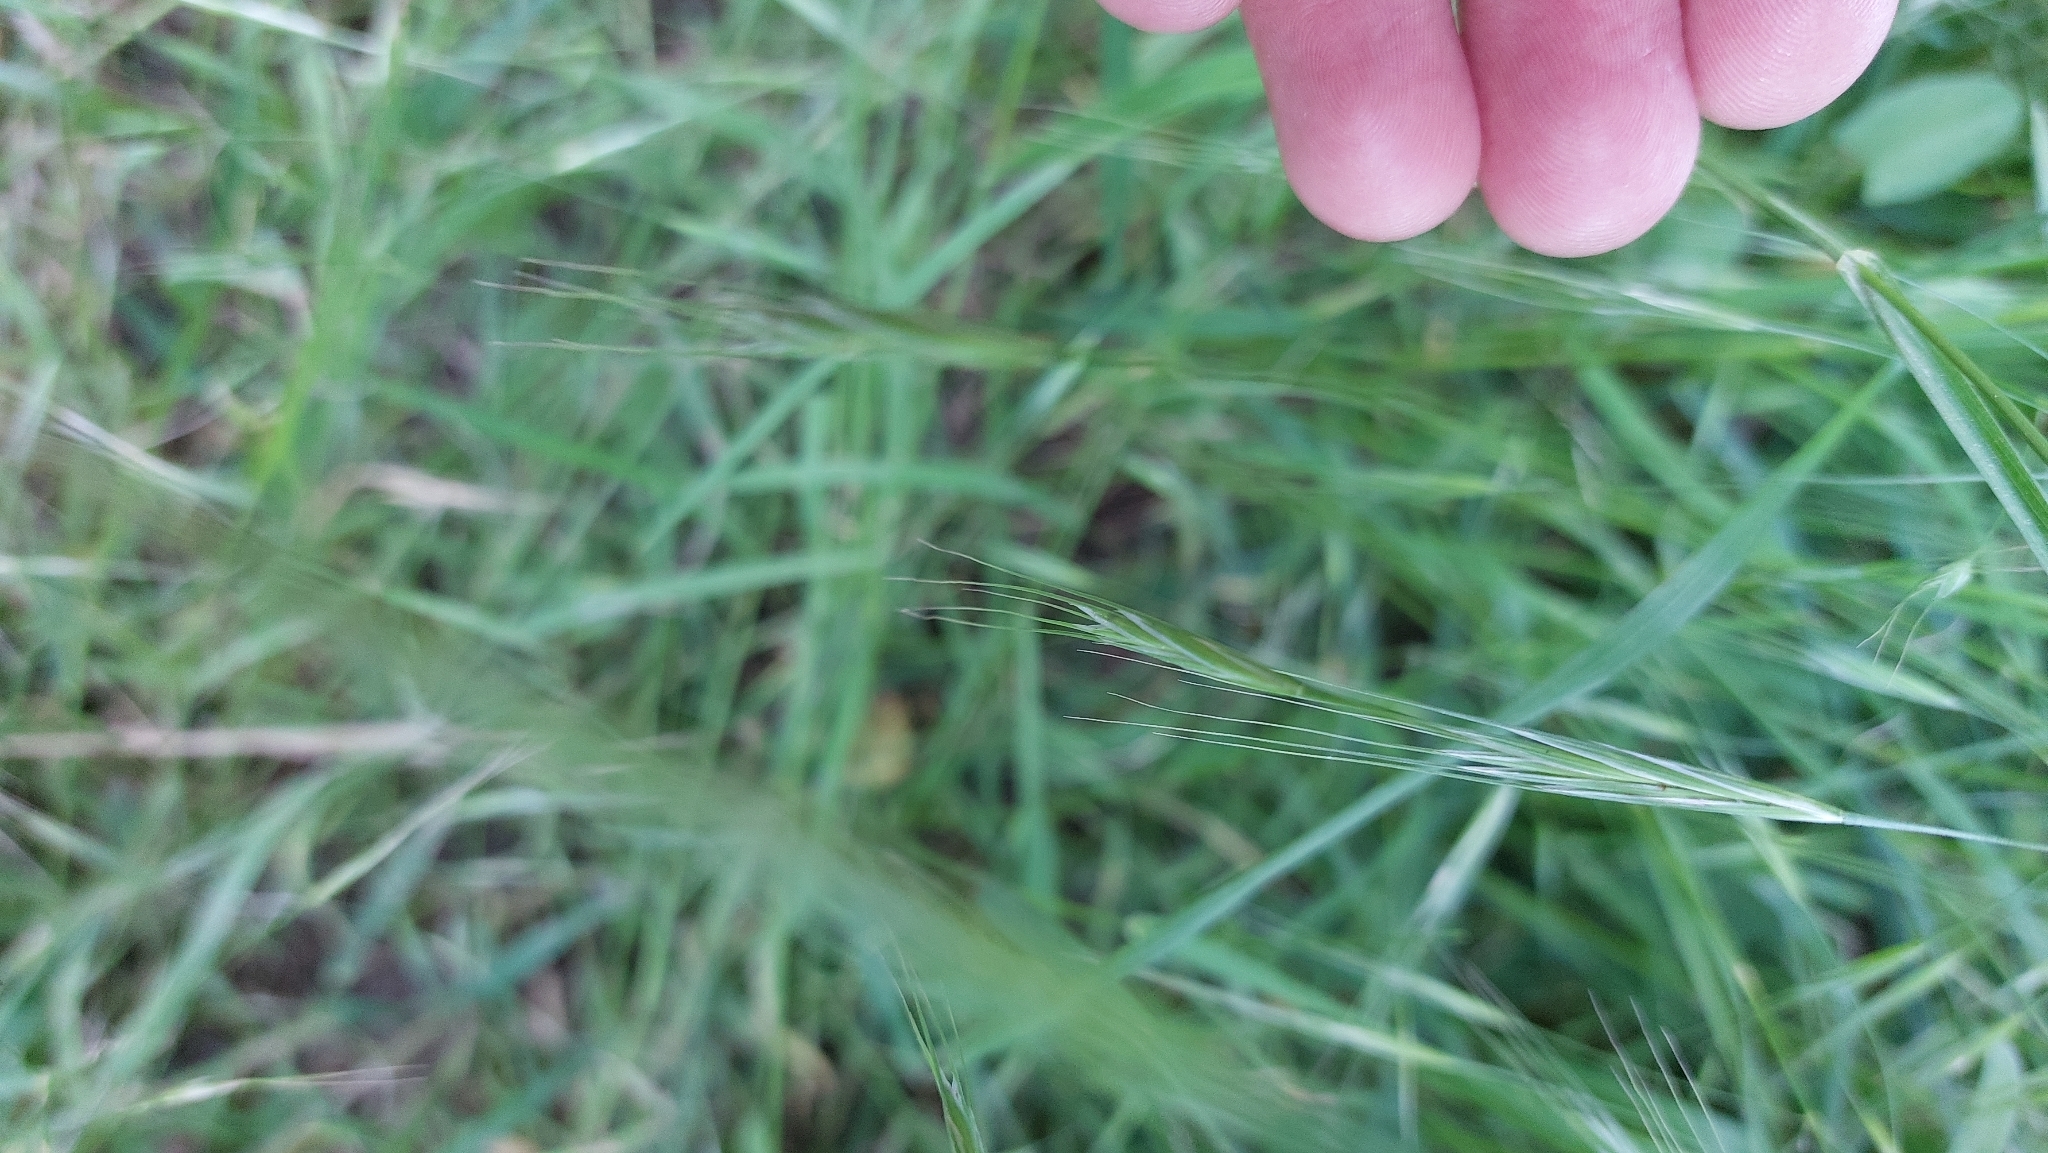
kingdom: Plantae
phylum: Tracheophyta
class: Liliopsida
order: Poales
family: Poaceae
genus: Bromus
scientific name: Bromus sterilis
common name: Poverty brome
